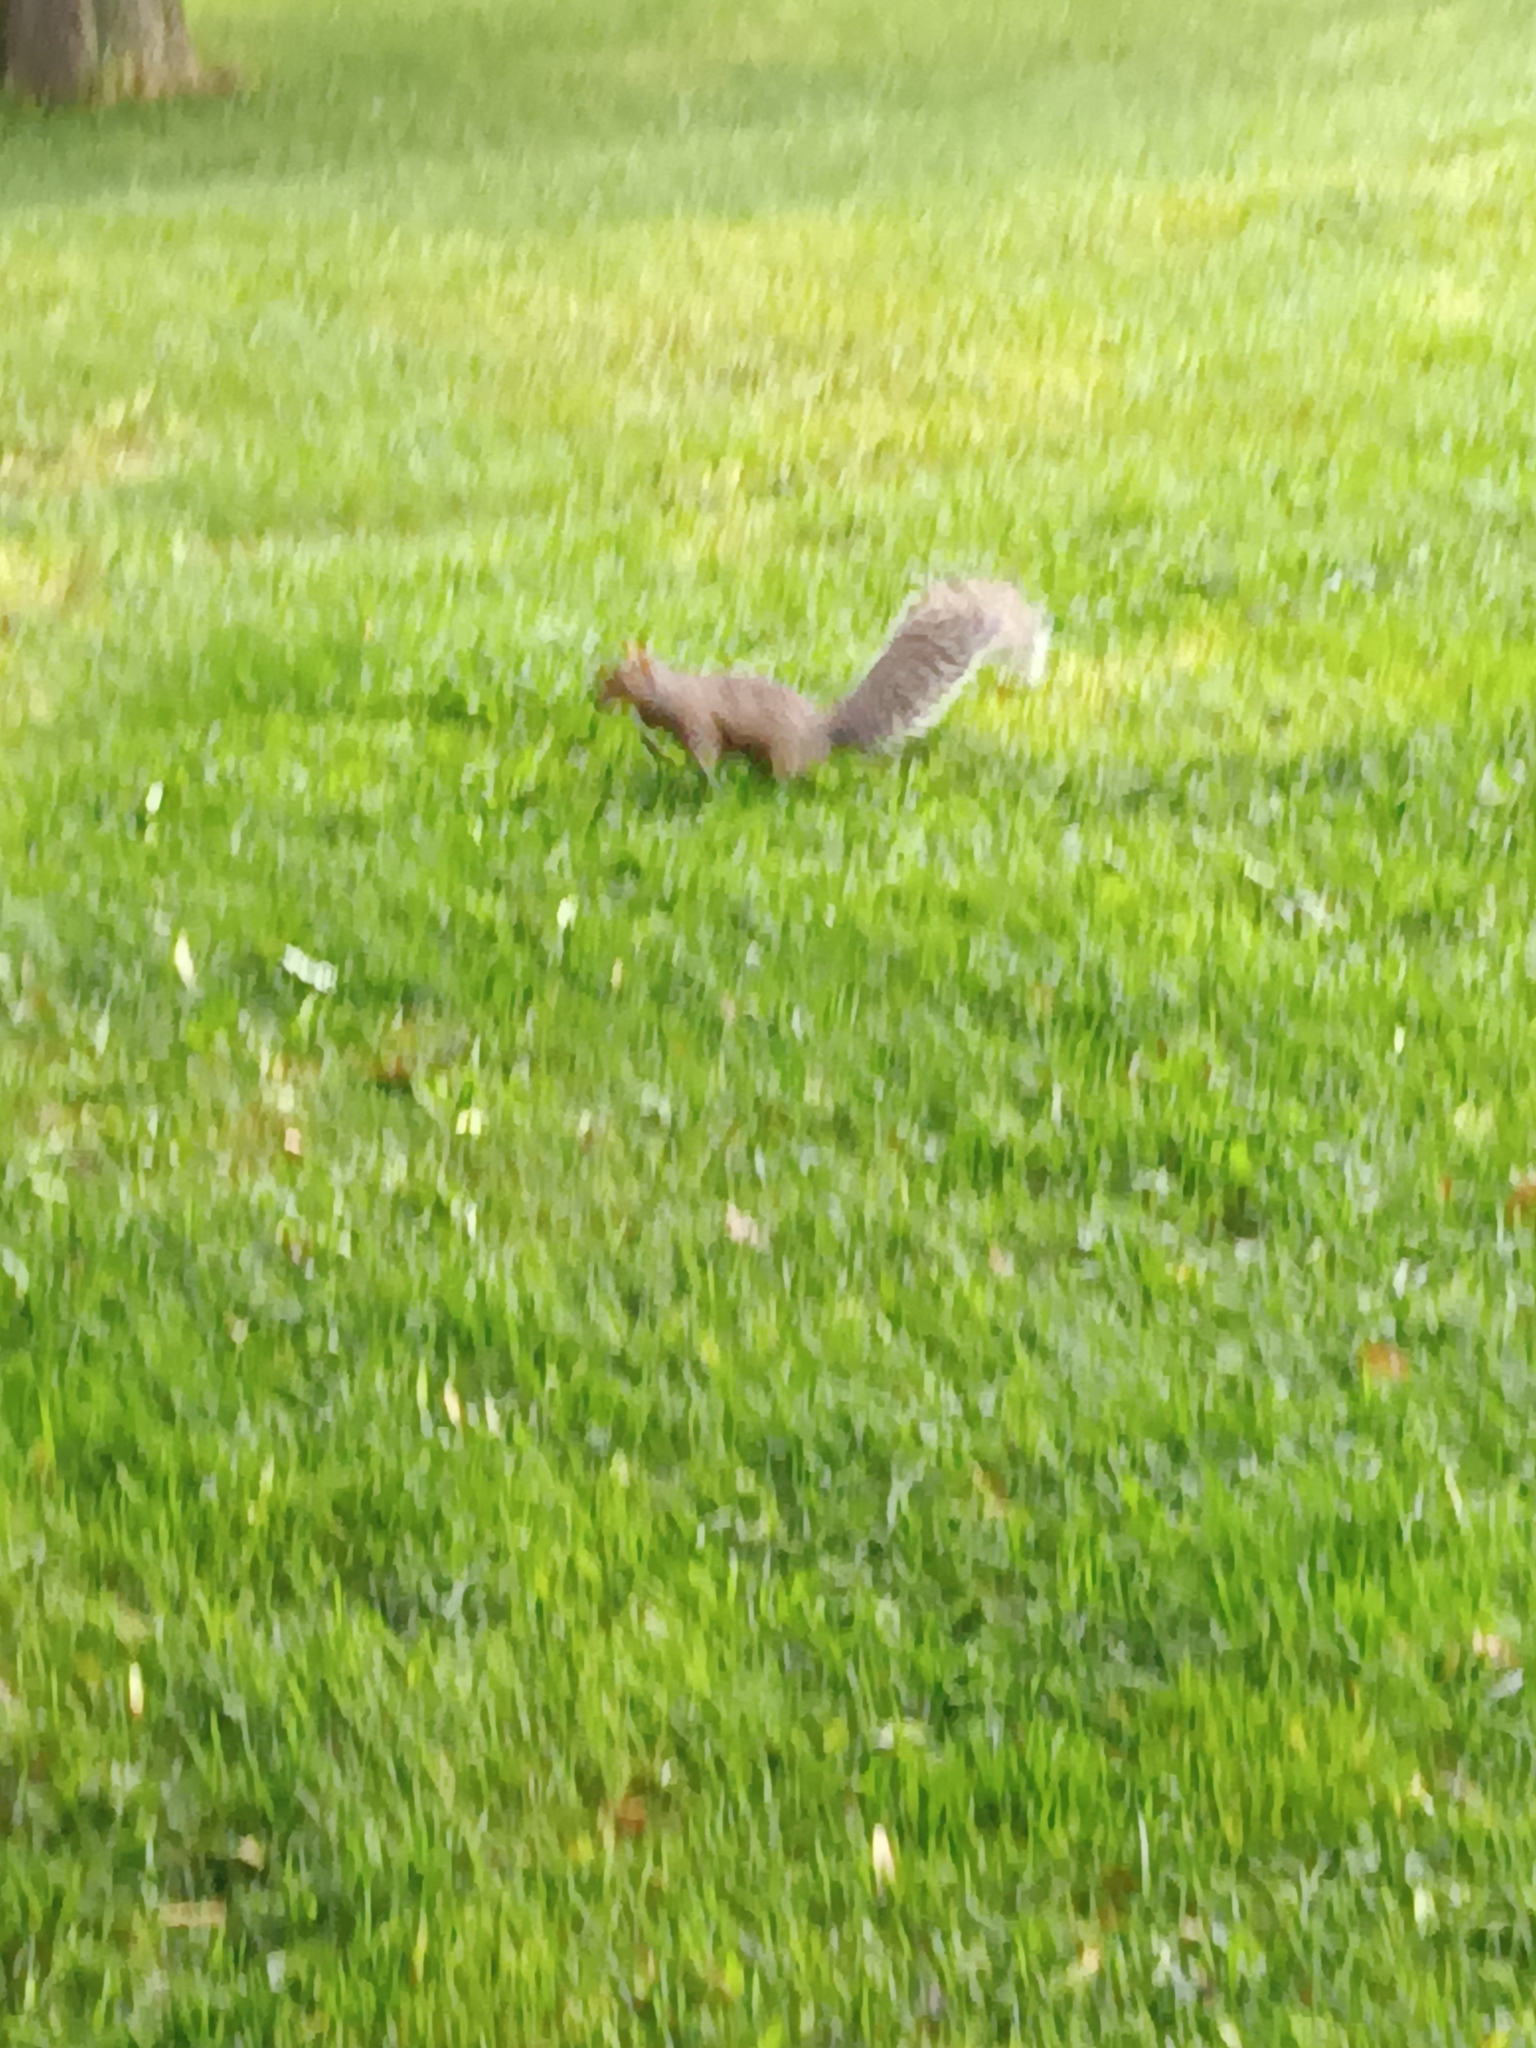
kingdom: Animalia
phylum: Chordata
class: Mammalia
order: Rodentia
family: Sciuridae
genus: Sciurus
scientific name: Sciurus carolinensis
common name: Eastern gray squirrel
